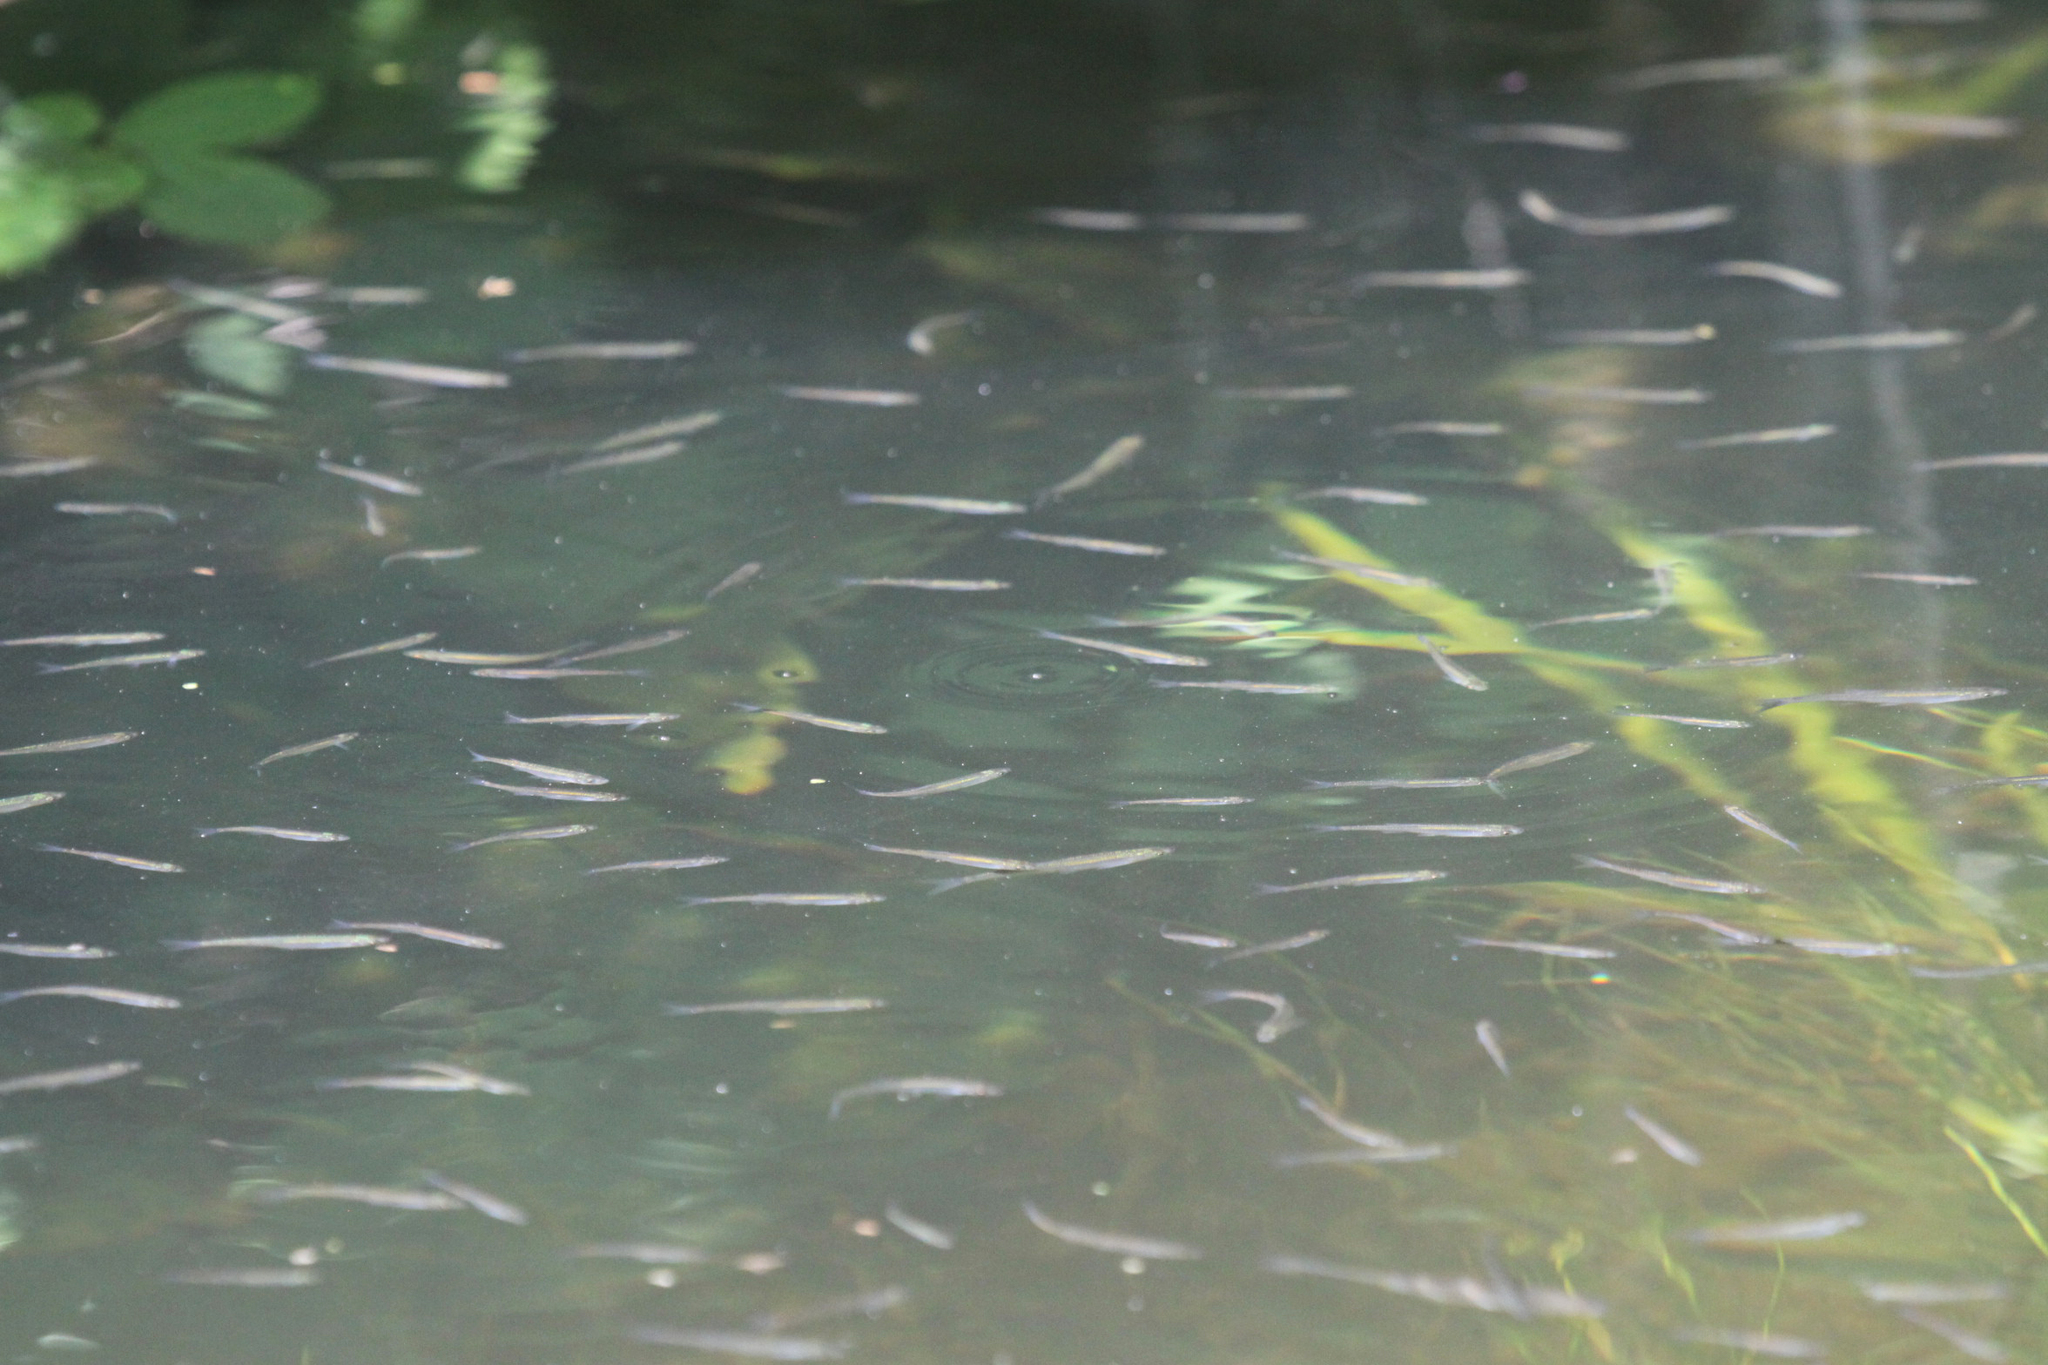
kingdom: Animalia
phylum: Chordata
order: Cypriniformes
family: Cyprinidae
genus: Alburnus
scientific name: Alburnus alburnus
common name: Bleak
